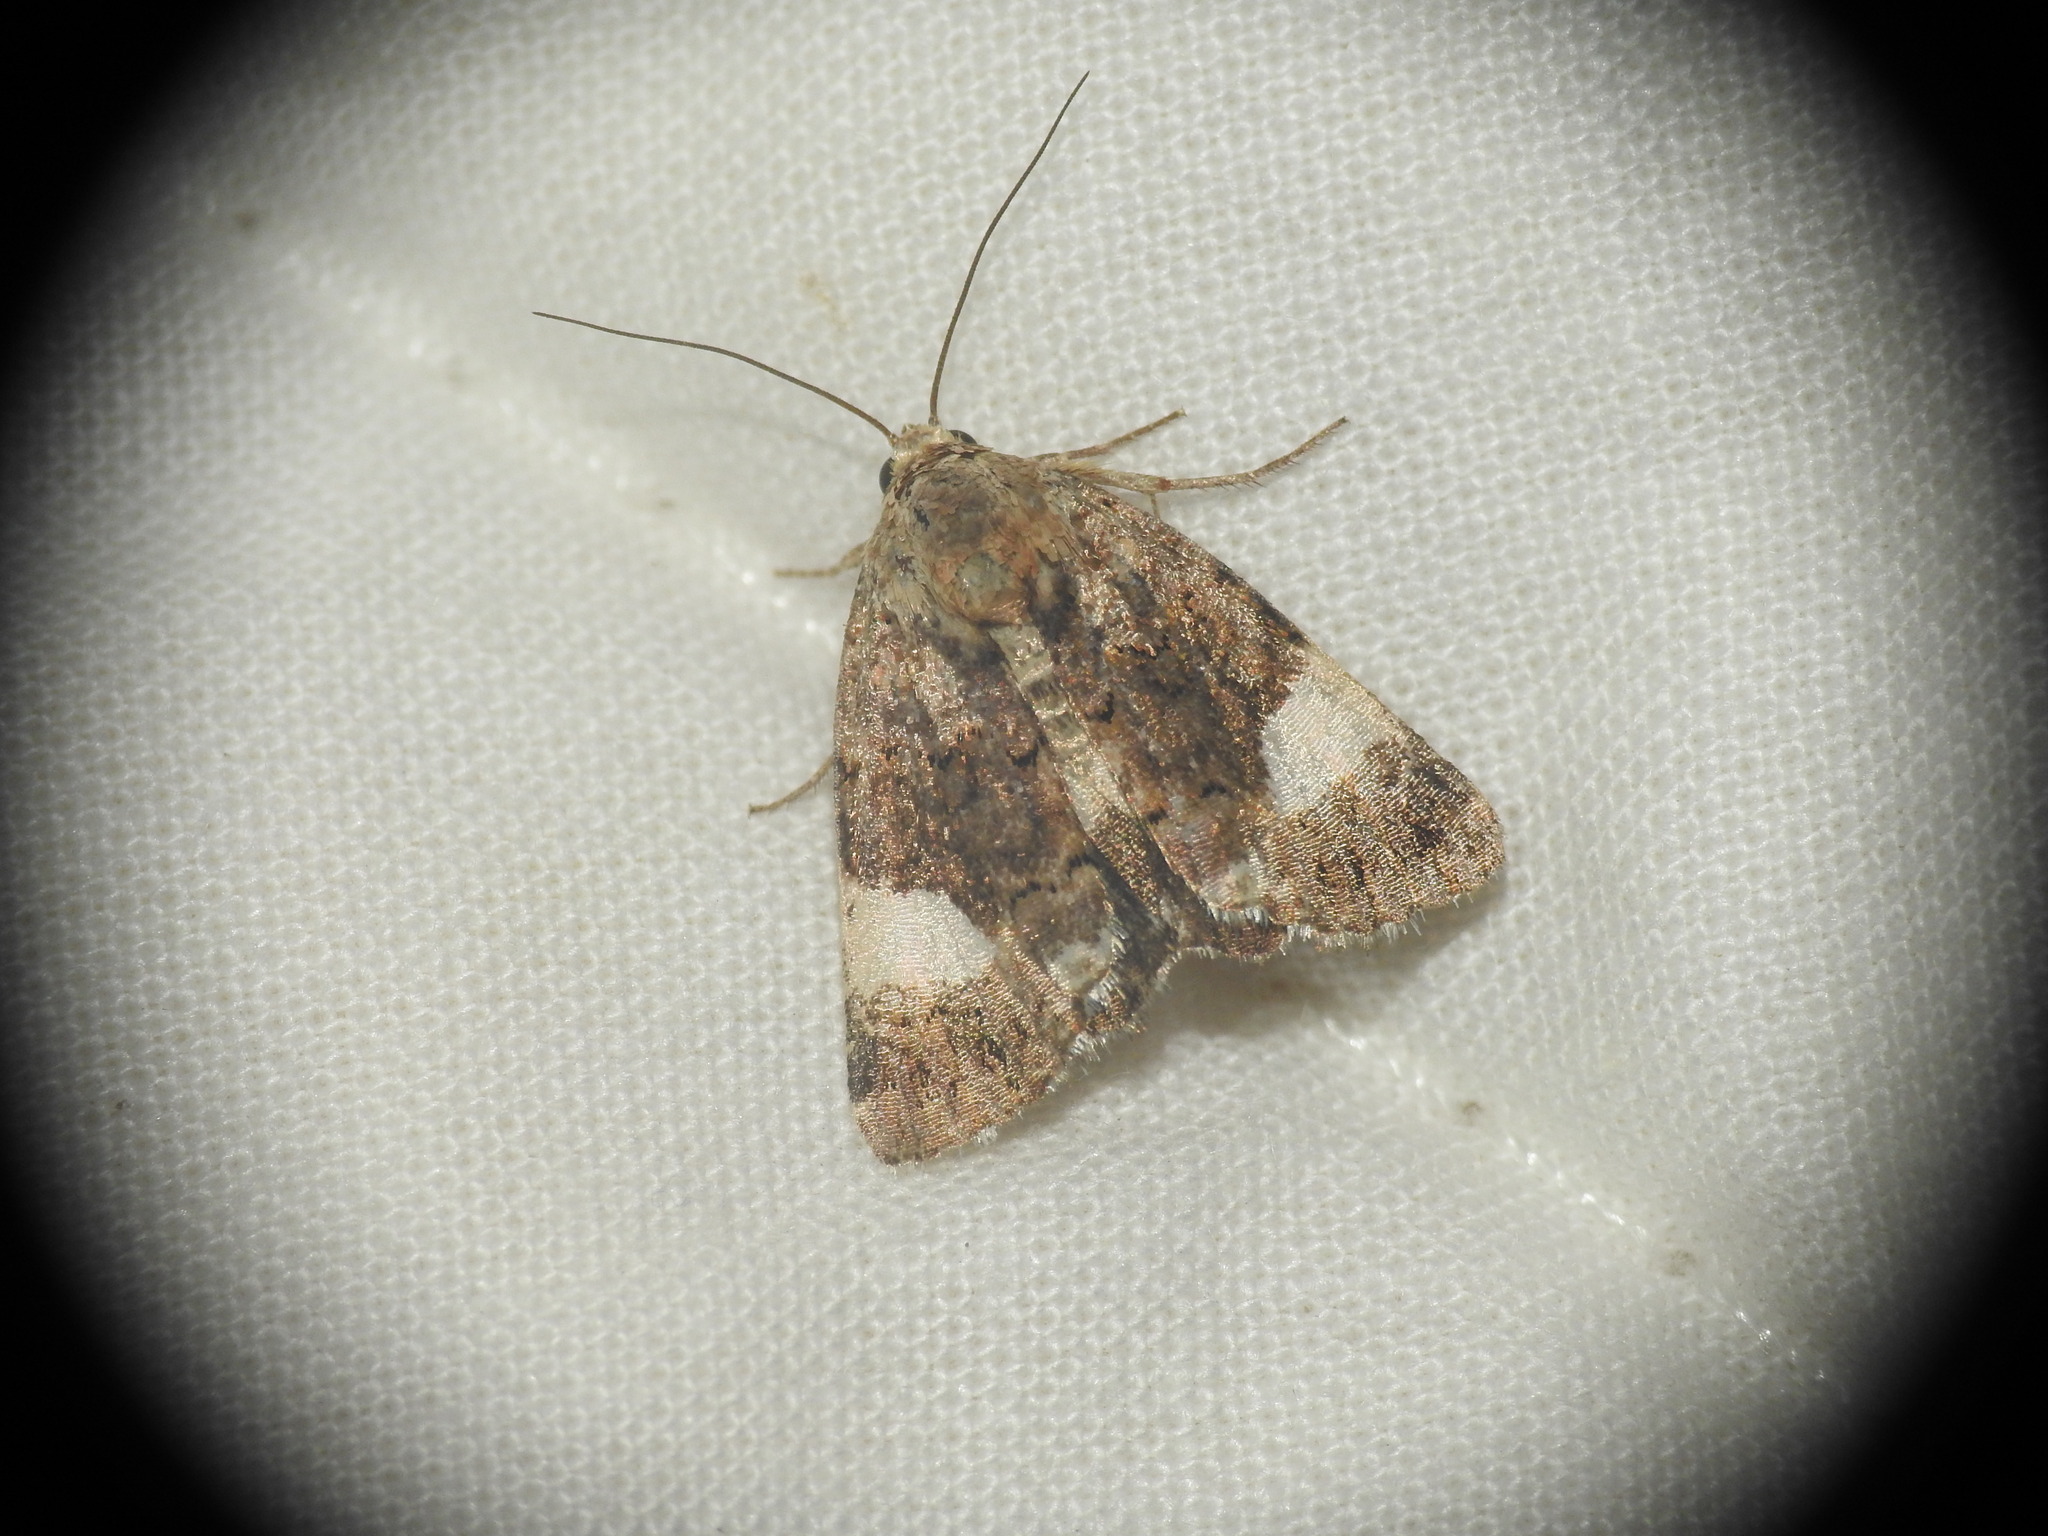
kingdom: Animalia
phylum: Arthropoda
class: Insecta
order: Lepidoptera
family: Erebidae
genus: Tyta
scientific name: Tyta luctuosa
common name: Four-spotted
